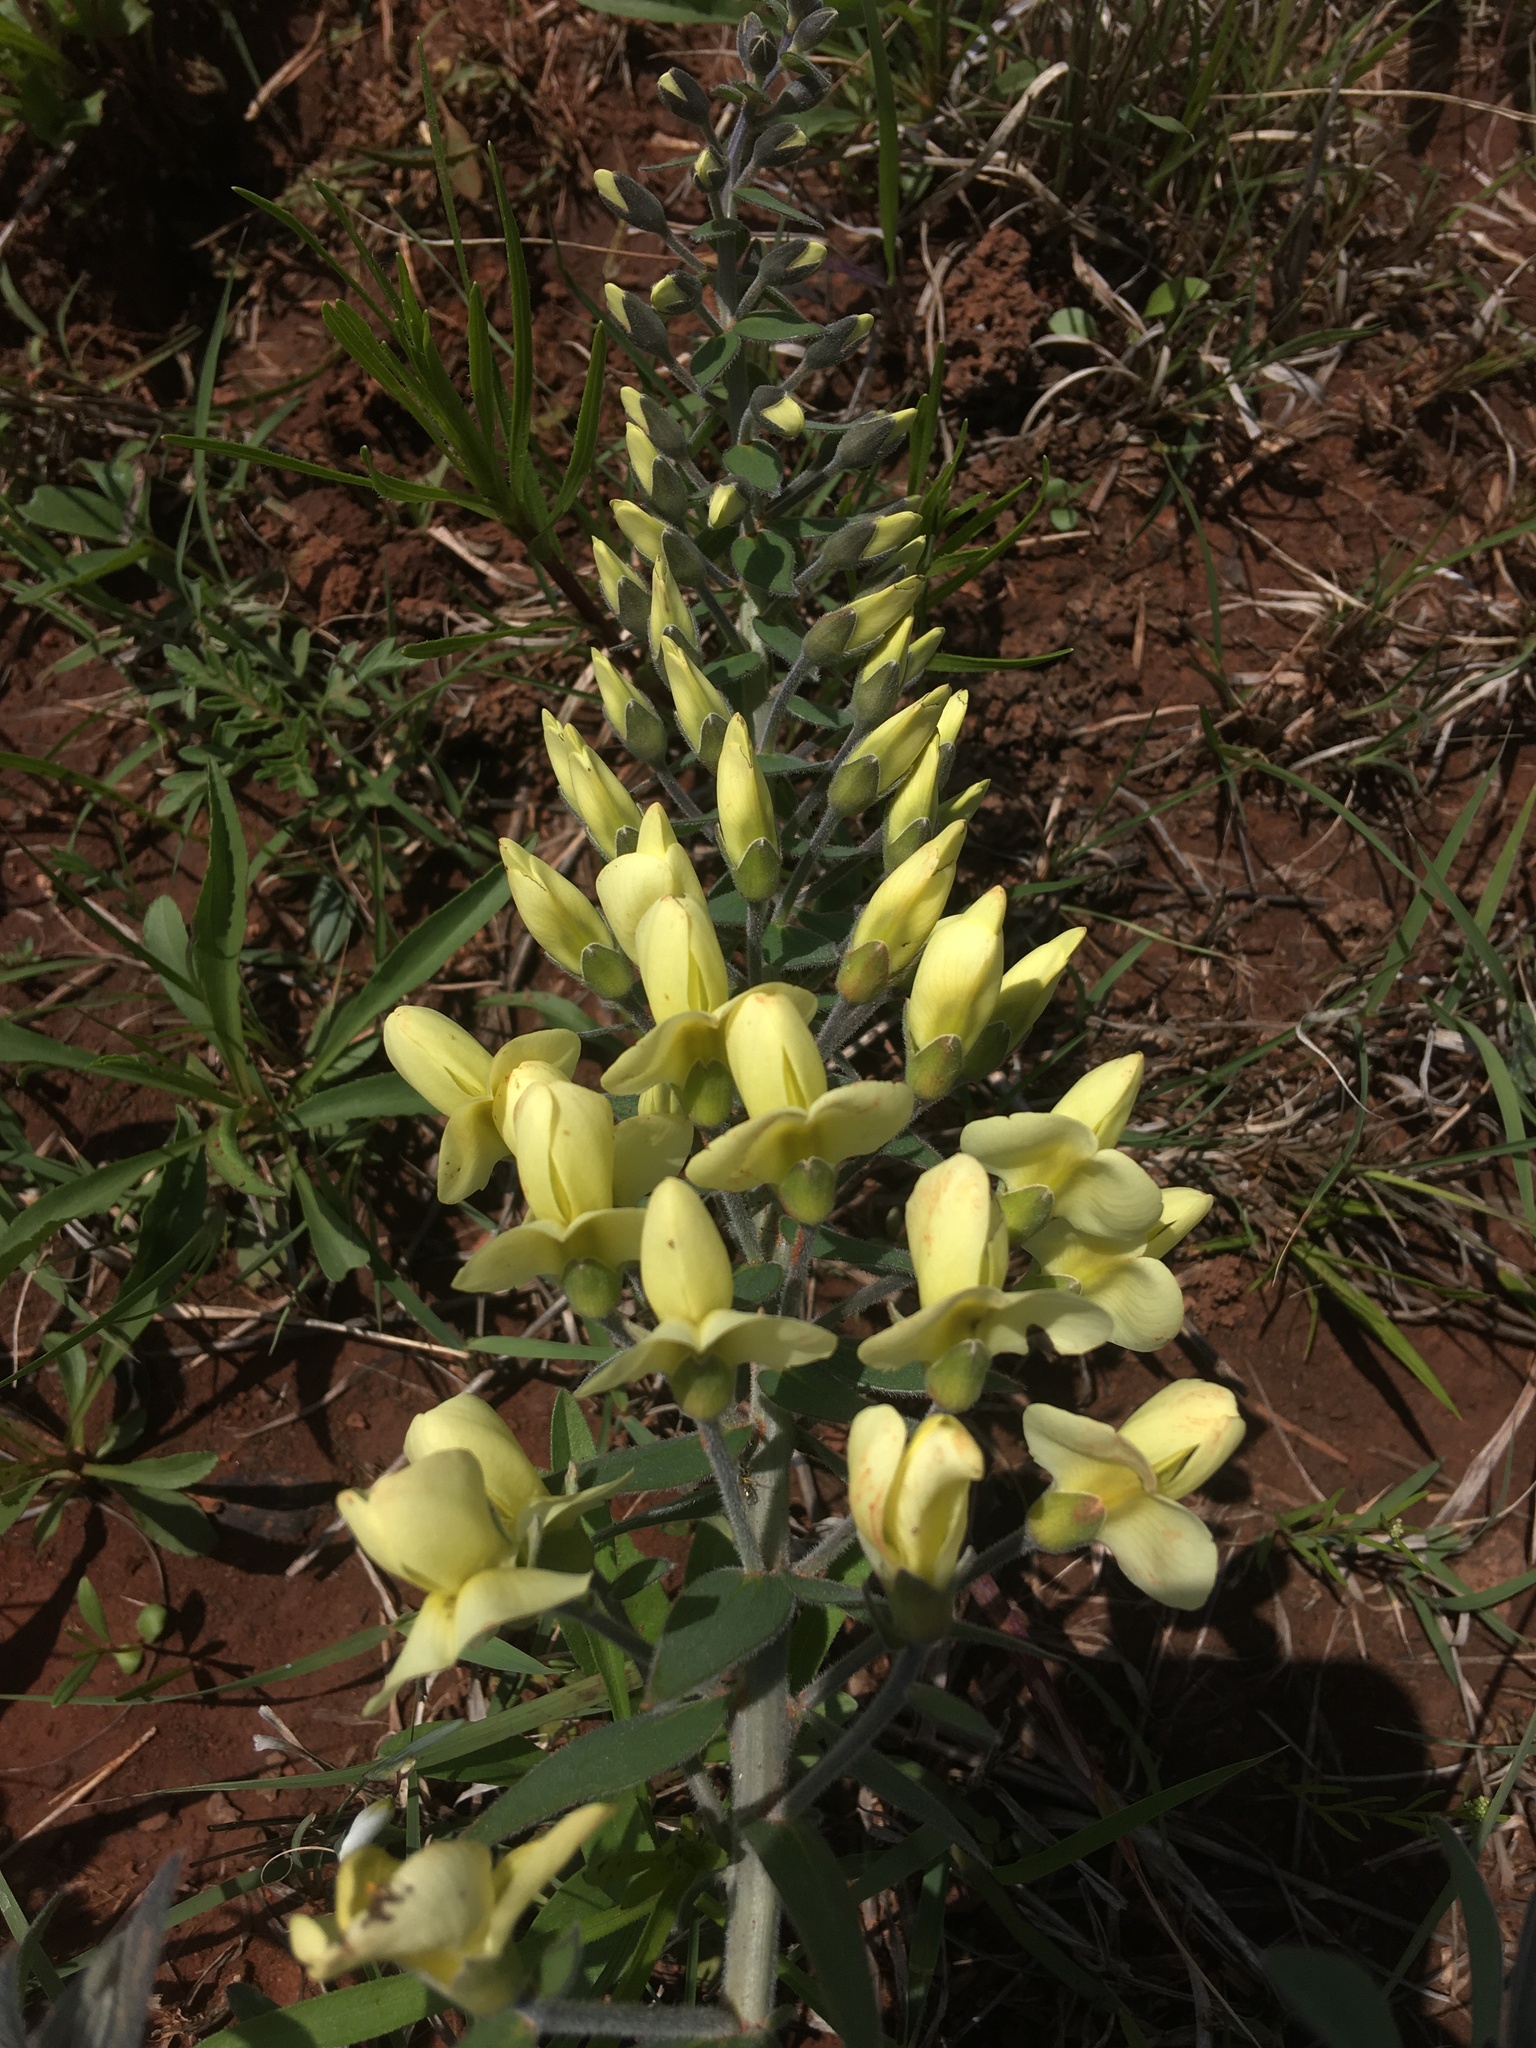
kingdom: Plantae
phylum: Tracheophyta
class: Magnoliopsida
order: Fabales
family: Fabaceae
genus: Baptisia
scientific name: Baptisia bracteata
